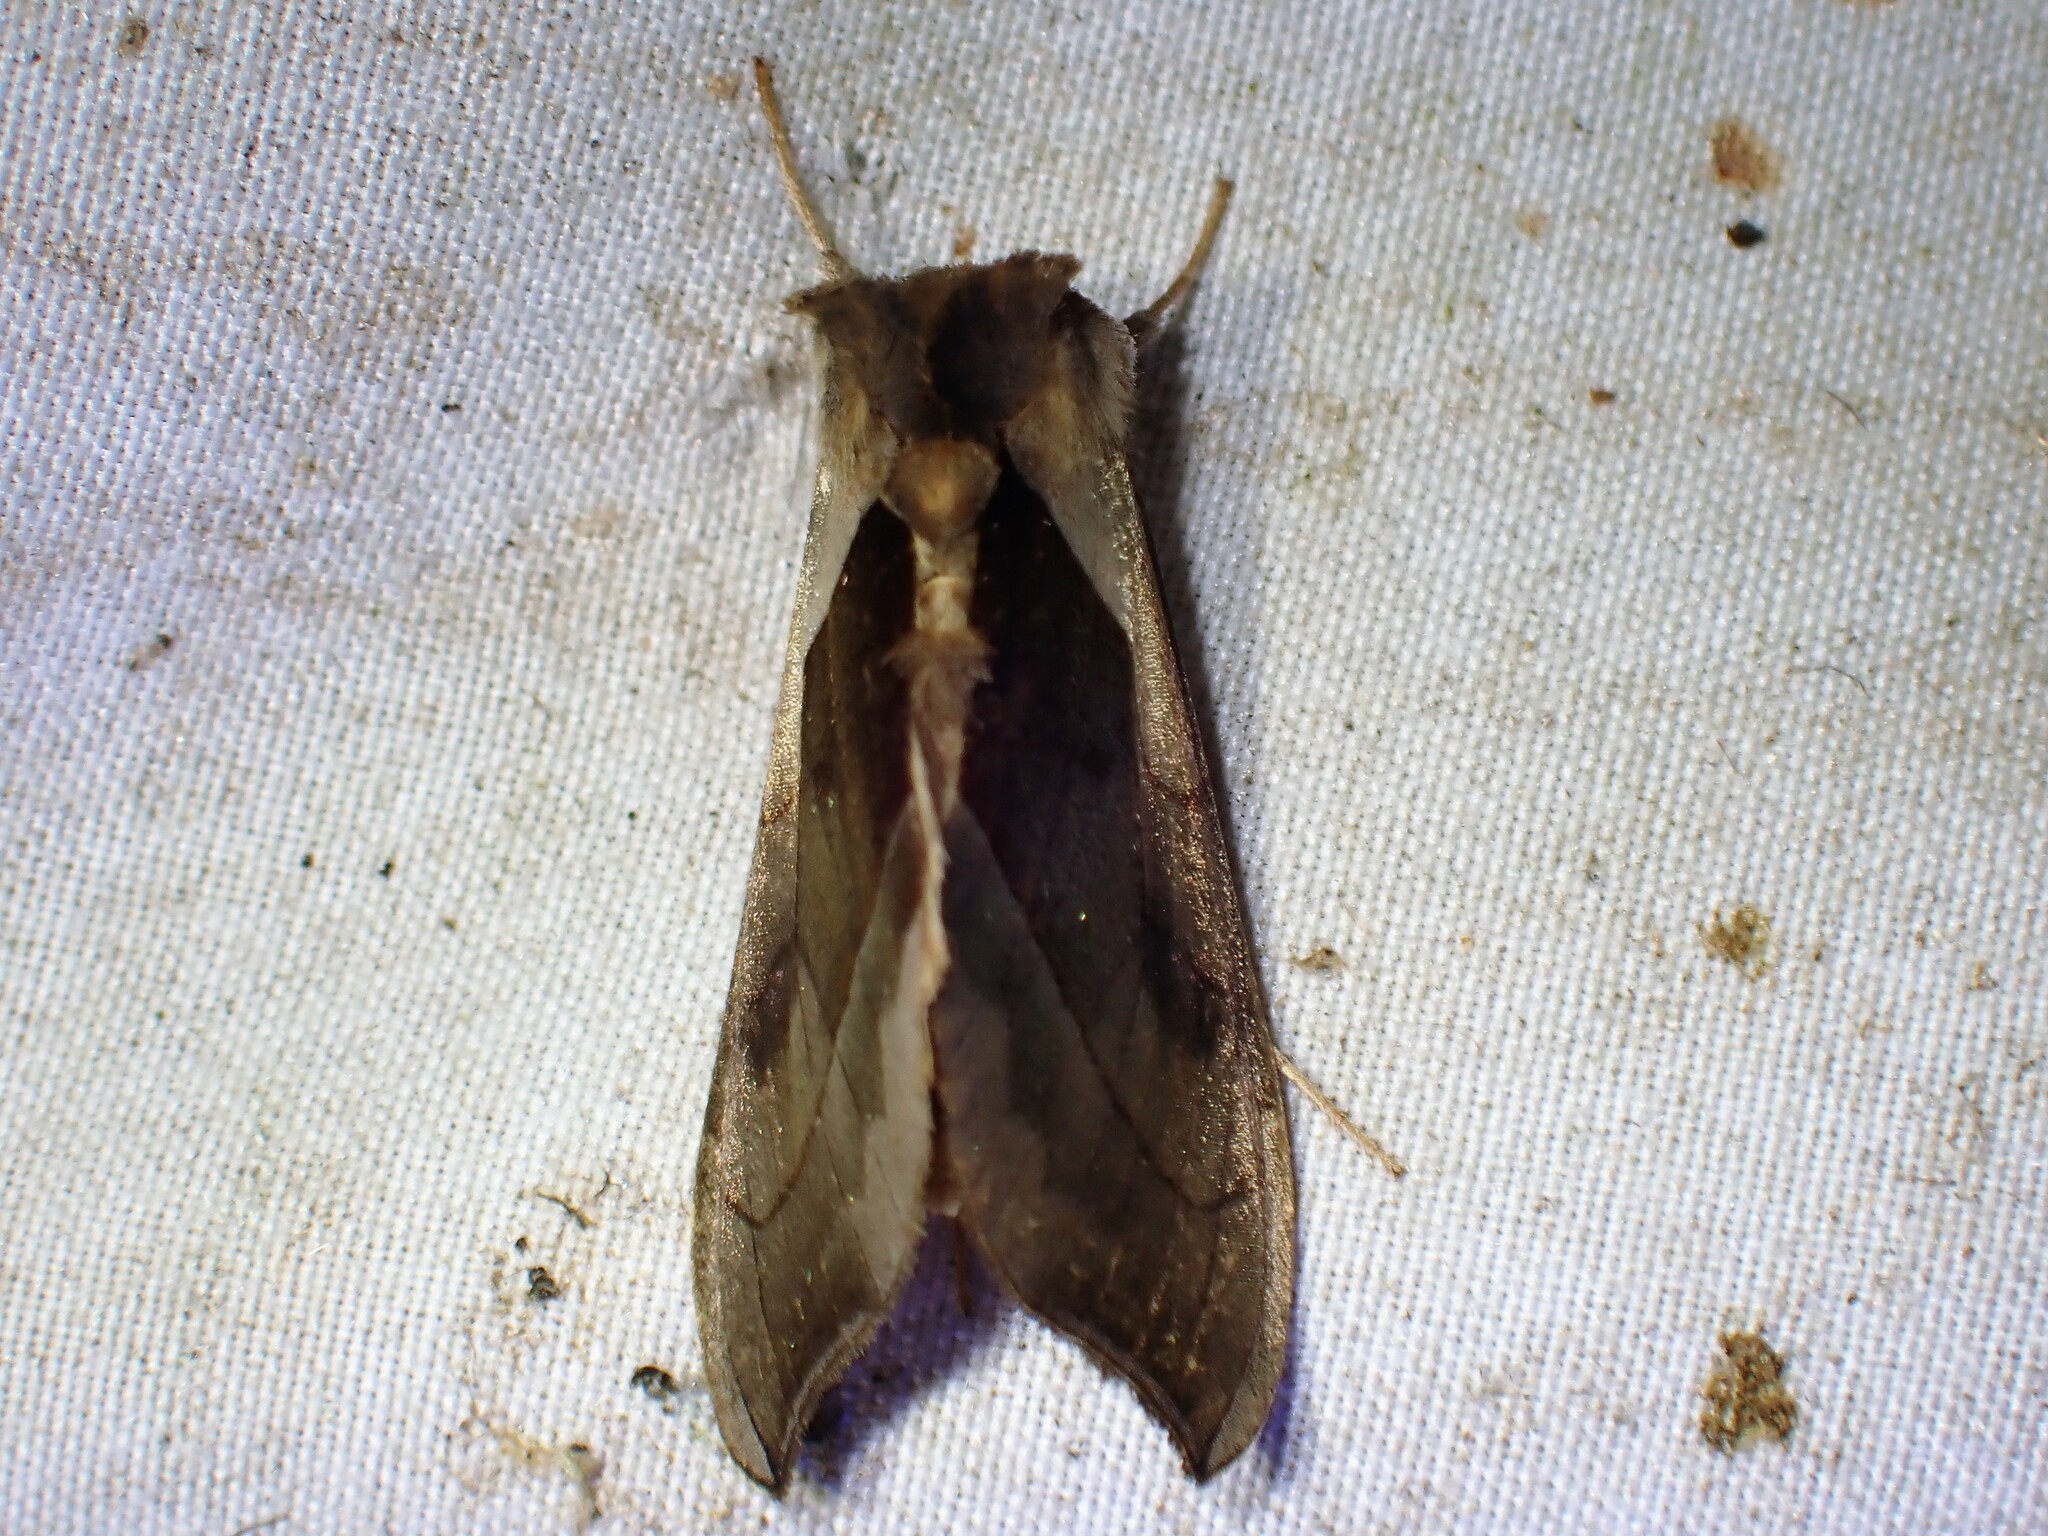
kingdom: Animalia
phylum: Arthropoda
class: Insecta
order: Lepidoptera
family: Noctuidae
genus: Diachrysia
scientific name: Diachrysia balluca
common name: Green-patched looper moth
